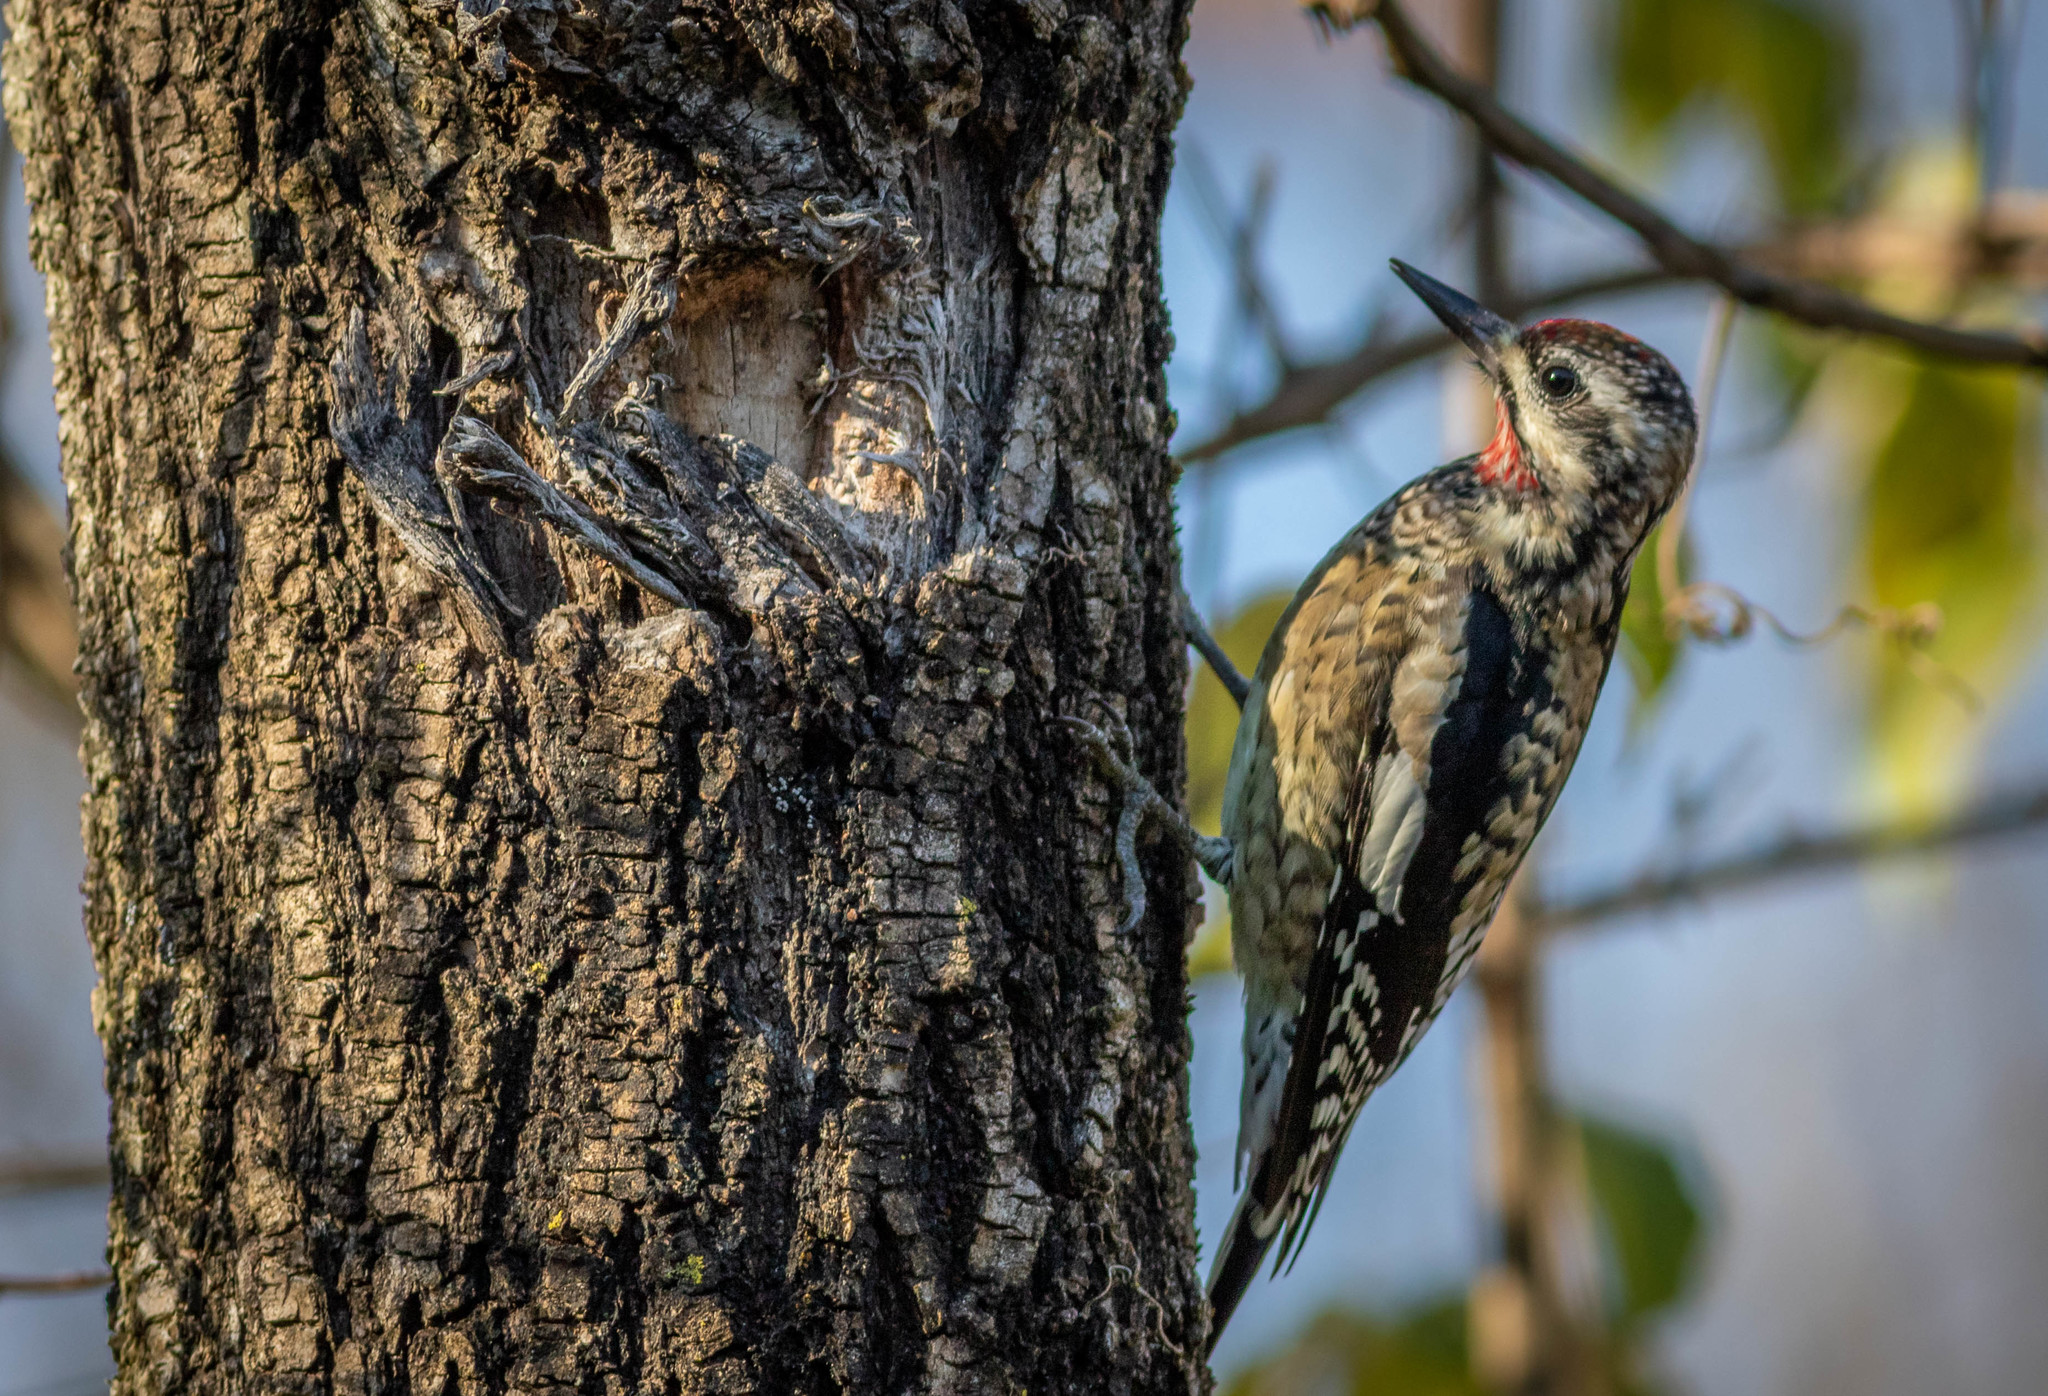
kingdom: Animalia
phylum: Chordata
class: Aves
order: Piciformes
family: Picidae
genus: Sphyrapicus
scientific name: Sphyrapicus varius
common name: Yellow-bellied sapsucker
